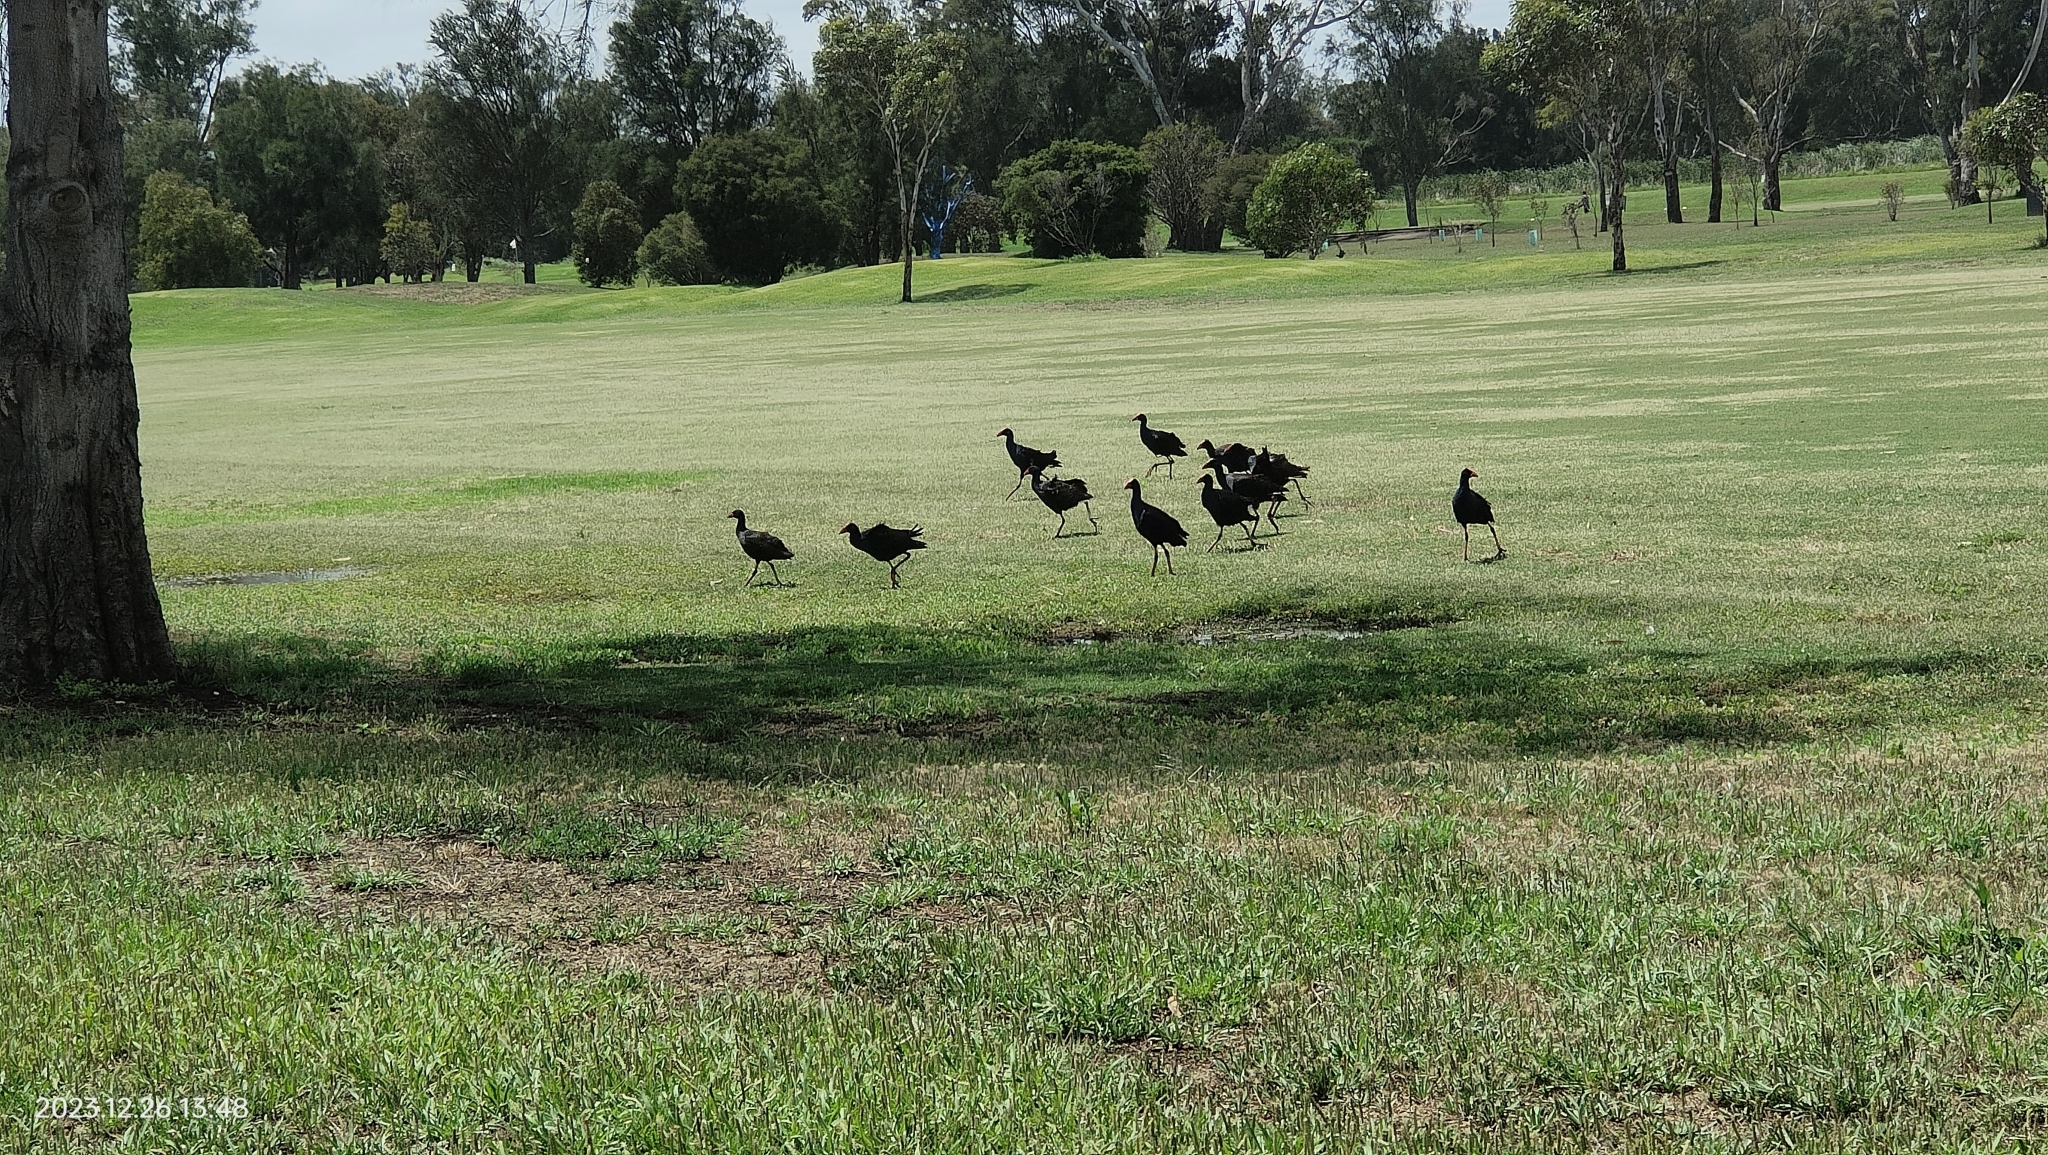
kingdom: Animalia
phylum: Chordata
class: Aves
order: Gruiformes
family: Rallidae
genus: Porphyrio
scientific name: Porphyrio melanotus
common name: Australasian swamphen
